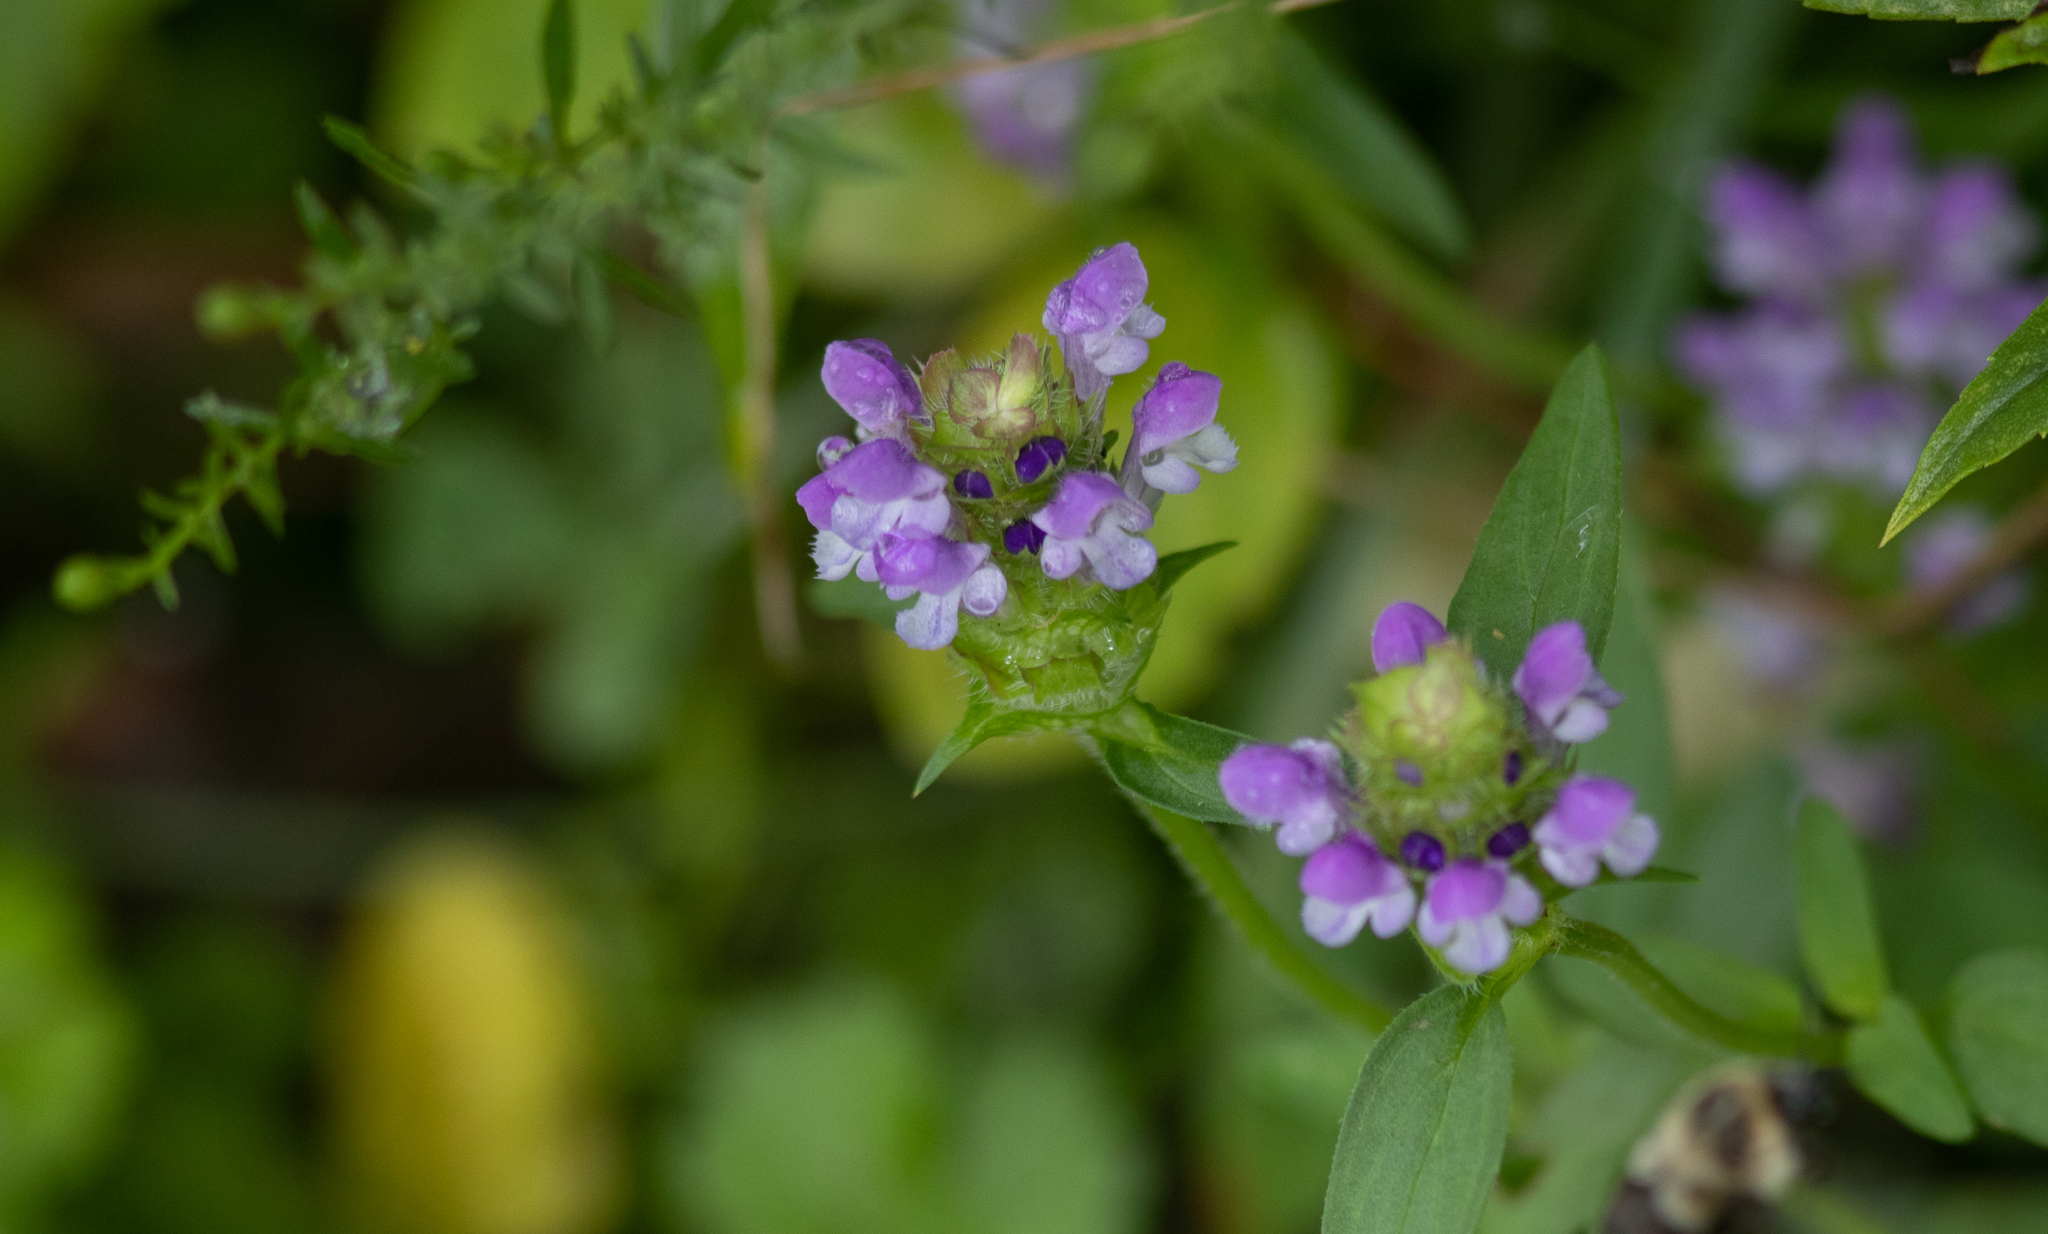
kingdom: Plantae
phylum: Tracheophyta
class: Magnoliopsida
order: Lamiales
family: Lamiaceae
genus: Prunella
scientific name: Prunella vulgaris
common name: Heal-all
